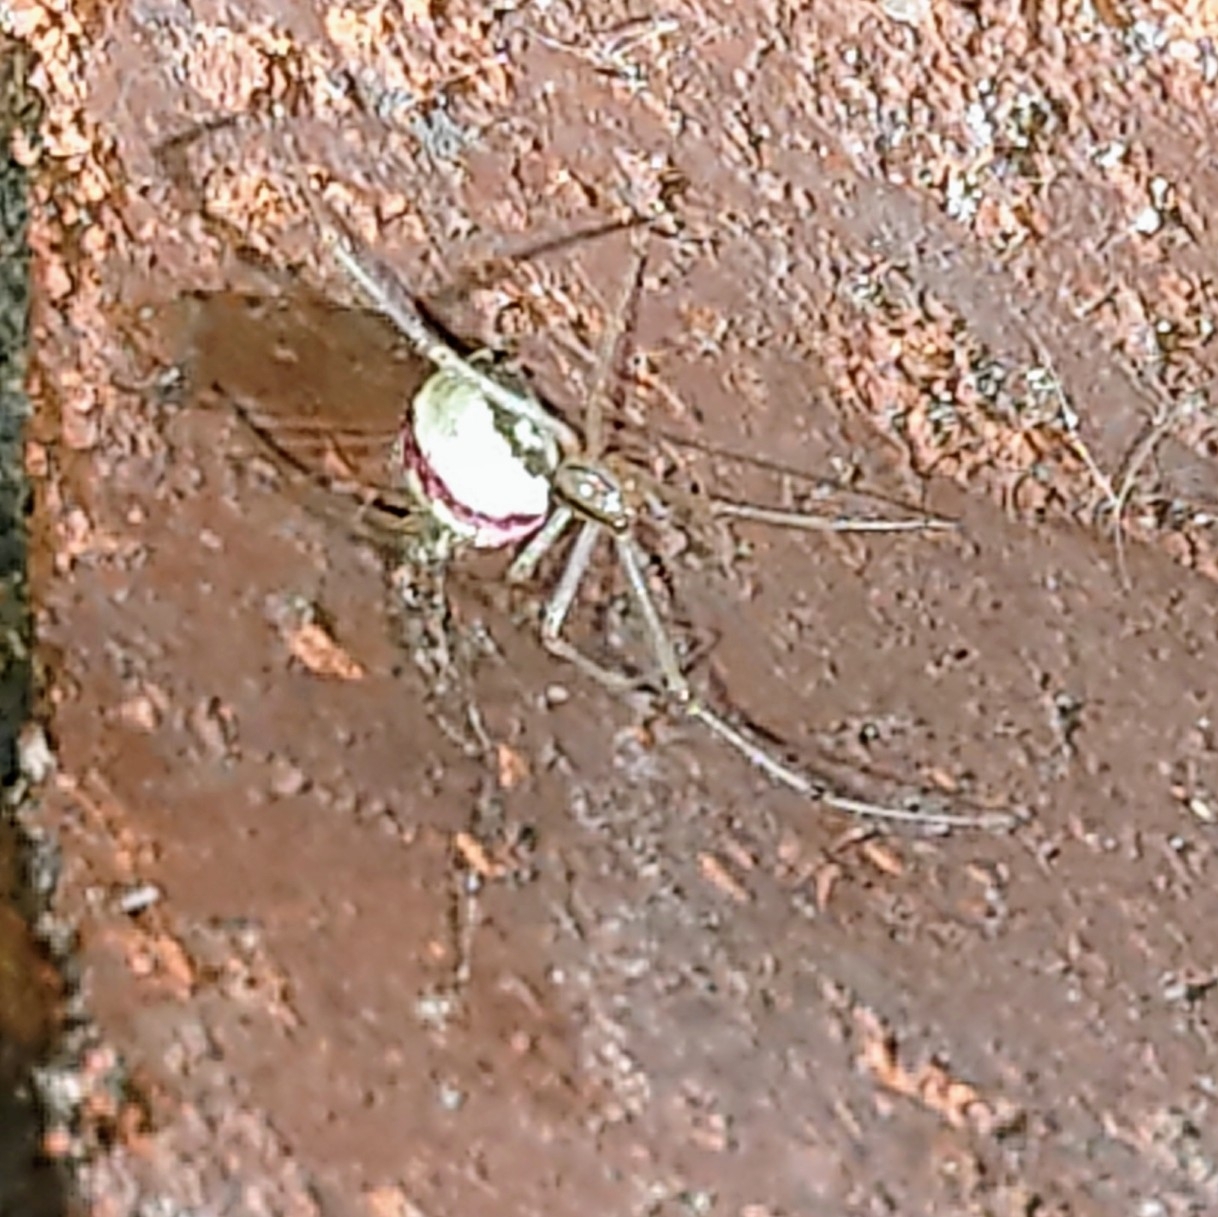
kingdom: Animalia
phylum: Arthropoda
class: Arachnida
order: Araneae
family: Theridiidae
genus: Enoplognatha
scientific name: Enoplognatha ovata
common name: Common candy-striped spider
